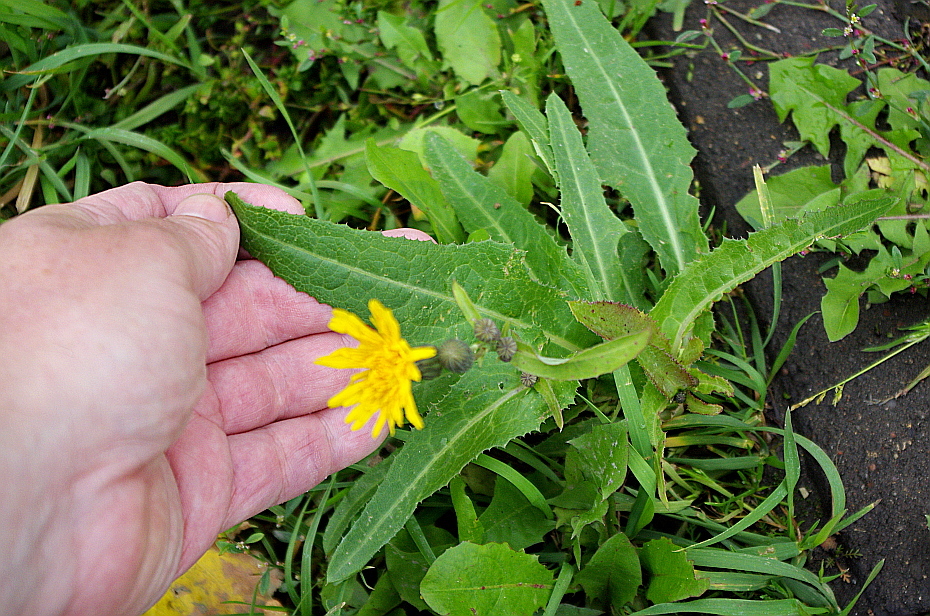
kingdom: Plantae
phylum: Tracheophyta
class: Magnoliopsida
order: Asterales
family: Asteraceae
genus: Sonchus
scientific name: Sonchus arvensis
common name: Perennial sow-thistle
